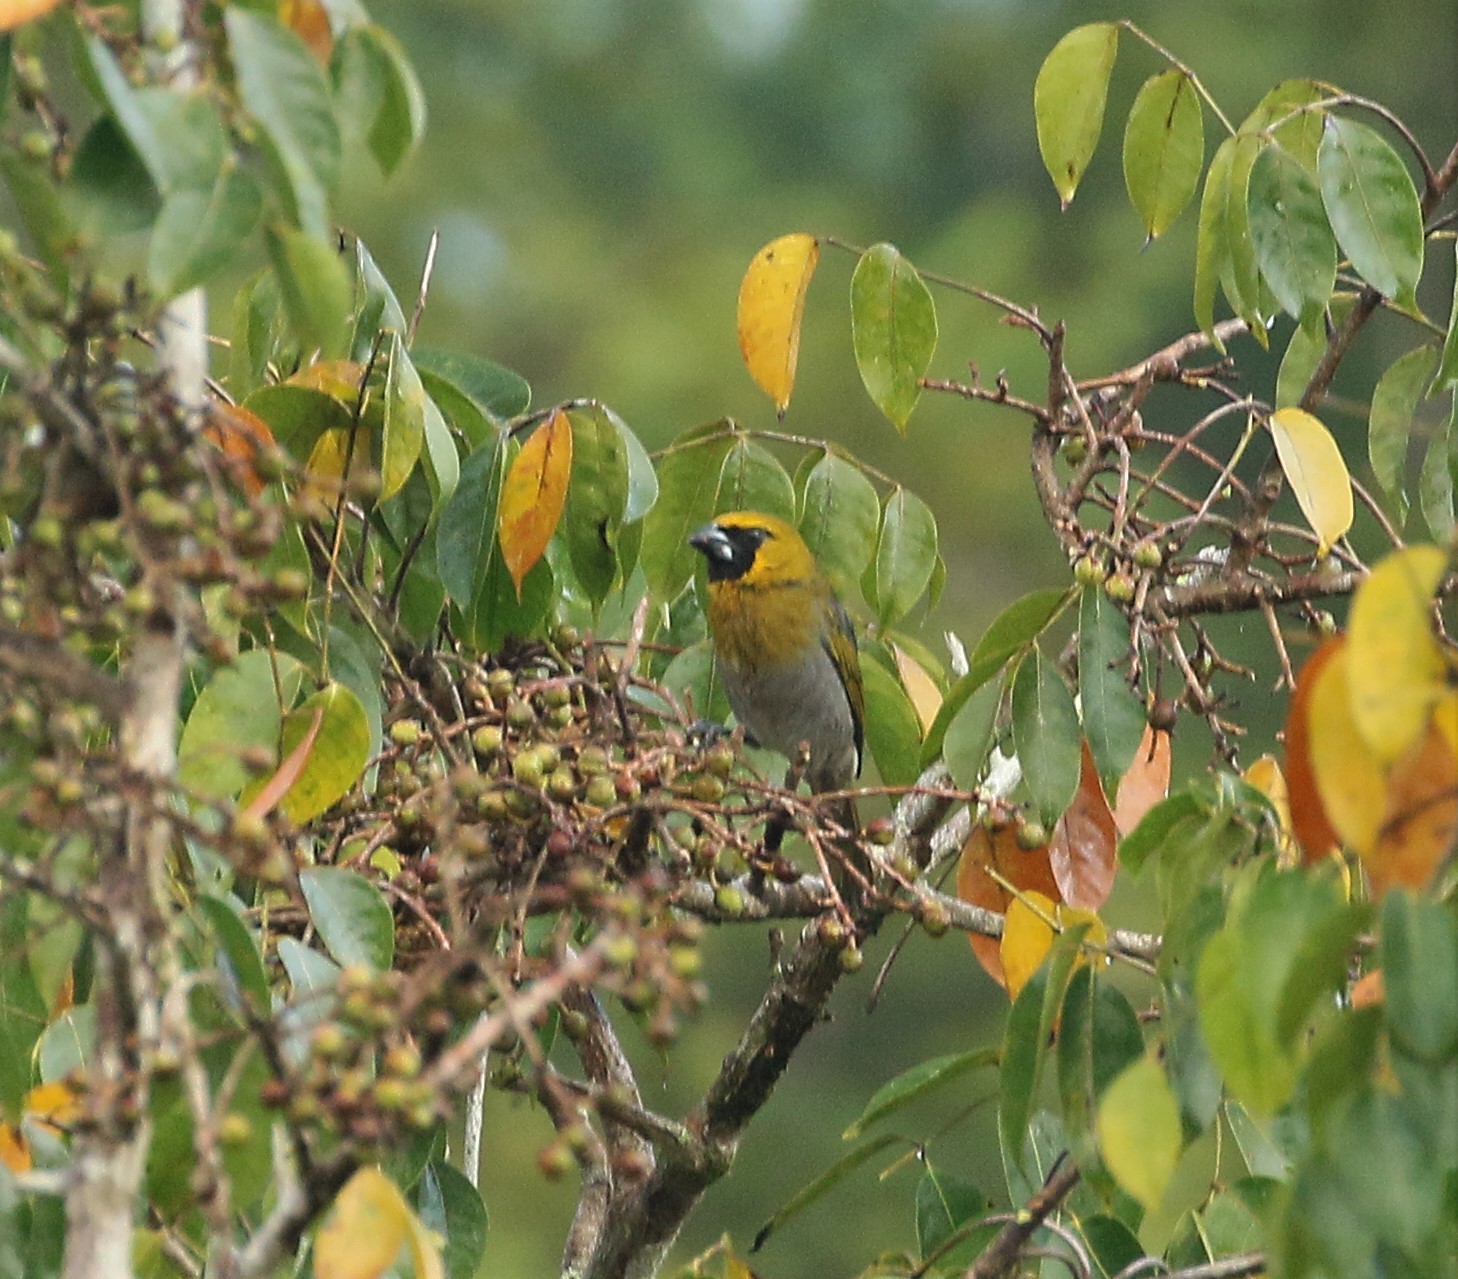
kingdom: Animalia
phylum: Chordata
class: Aves
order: Passeriformes
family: Cardinalidae
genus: Caryothraustes
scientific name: Caryothraustes poliogaster
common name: Black-faced grosbeak
